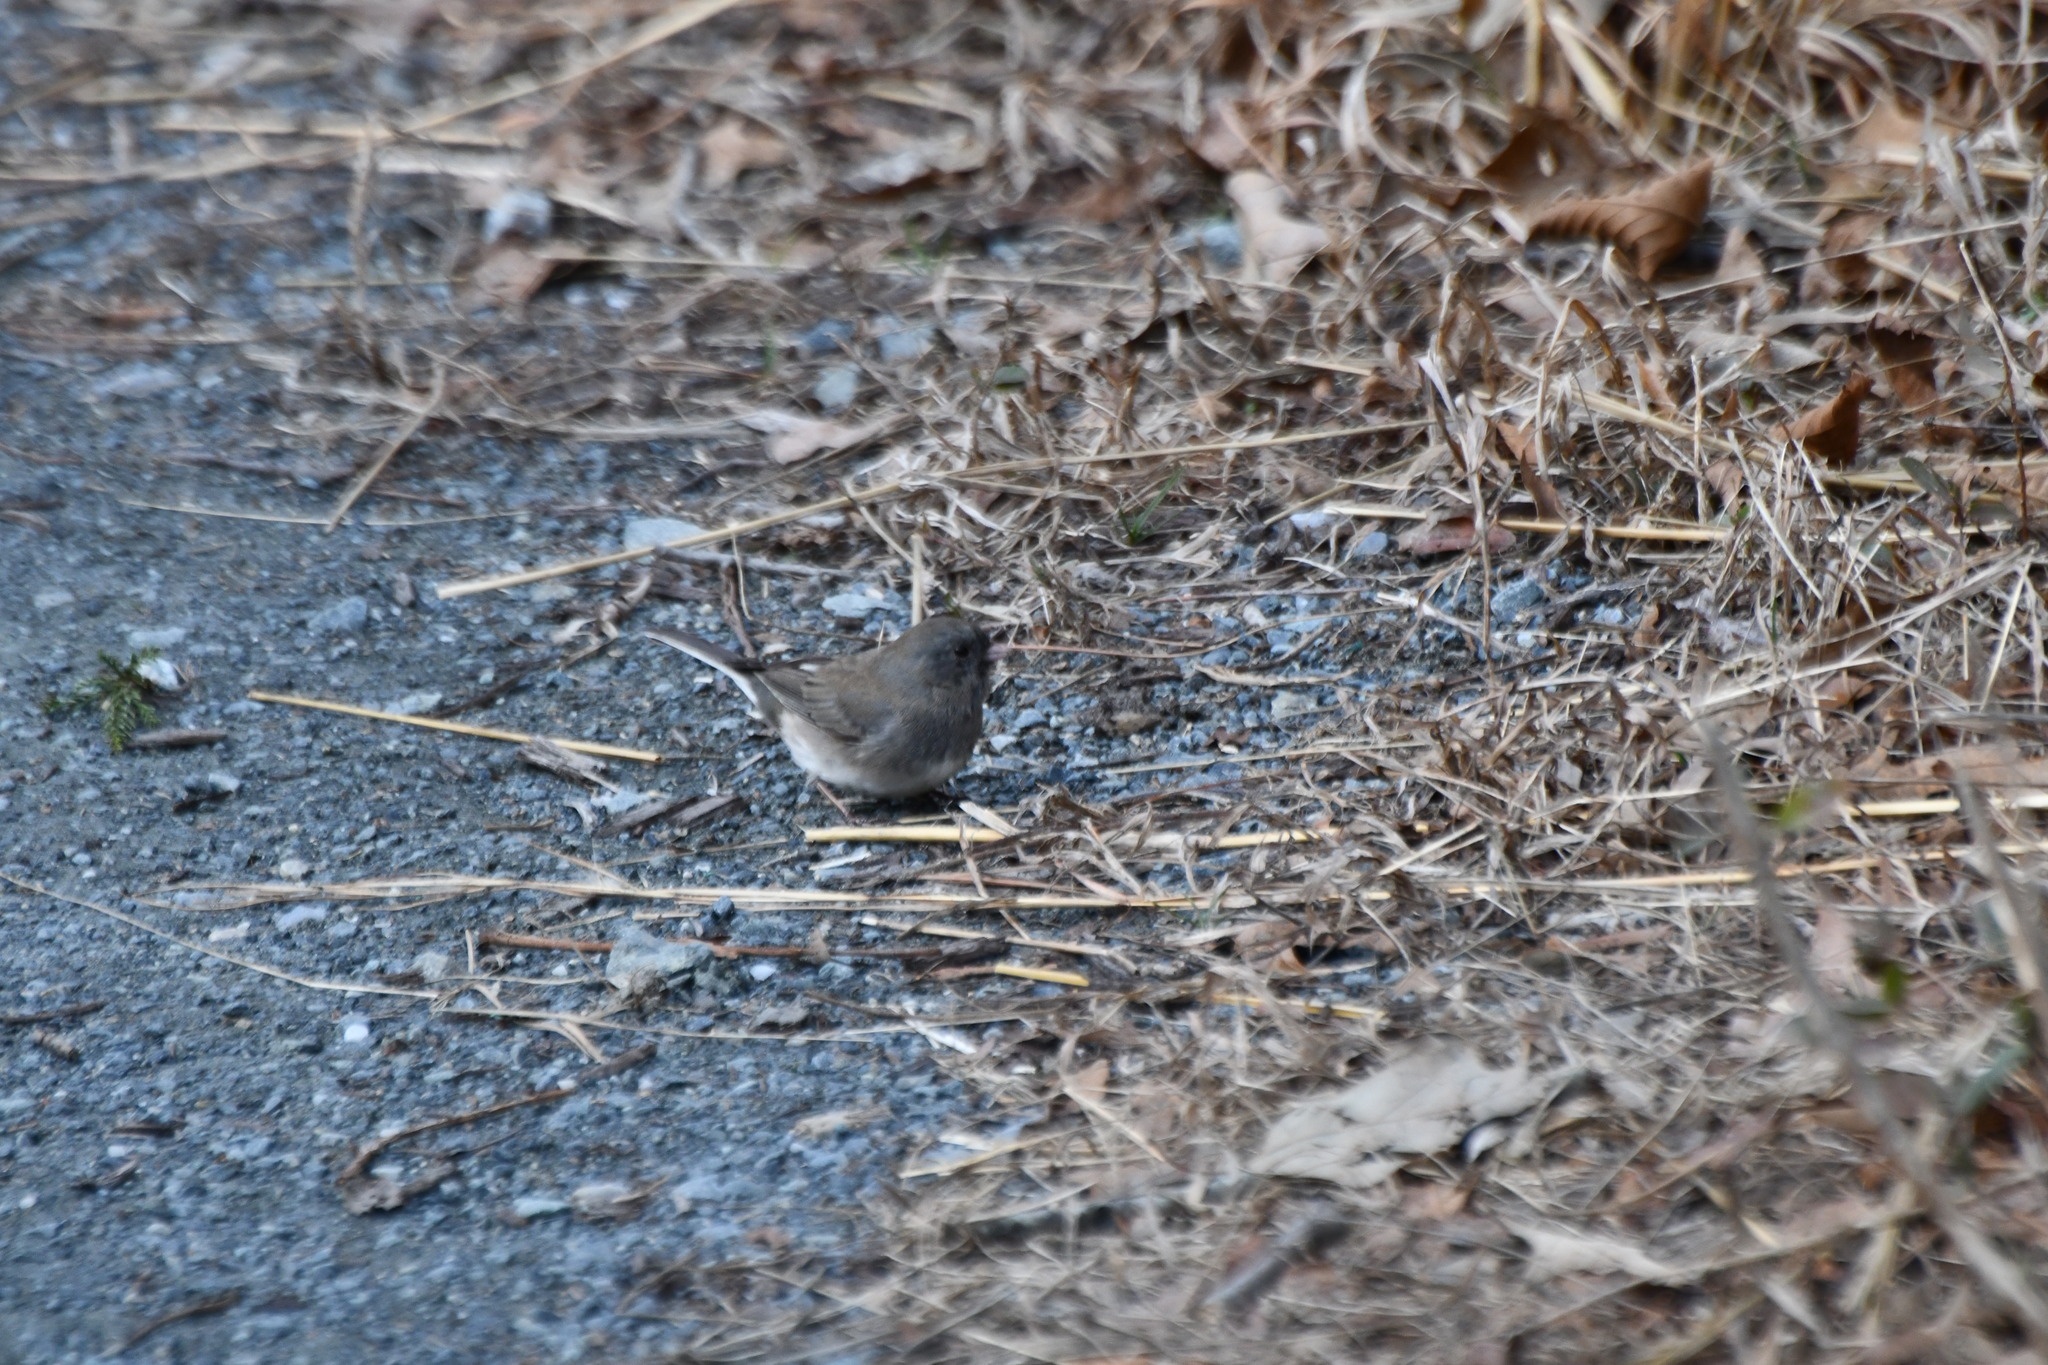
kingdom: Animalia
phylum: Chordata
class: Aves
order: Passeriformes
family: Passerellidae
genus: Junco
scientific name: Junco hyemalis
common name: Dark-eyed junco
